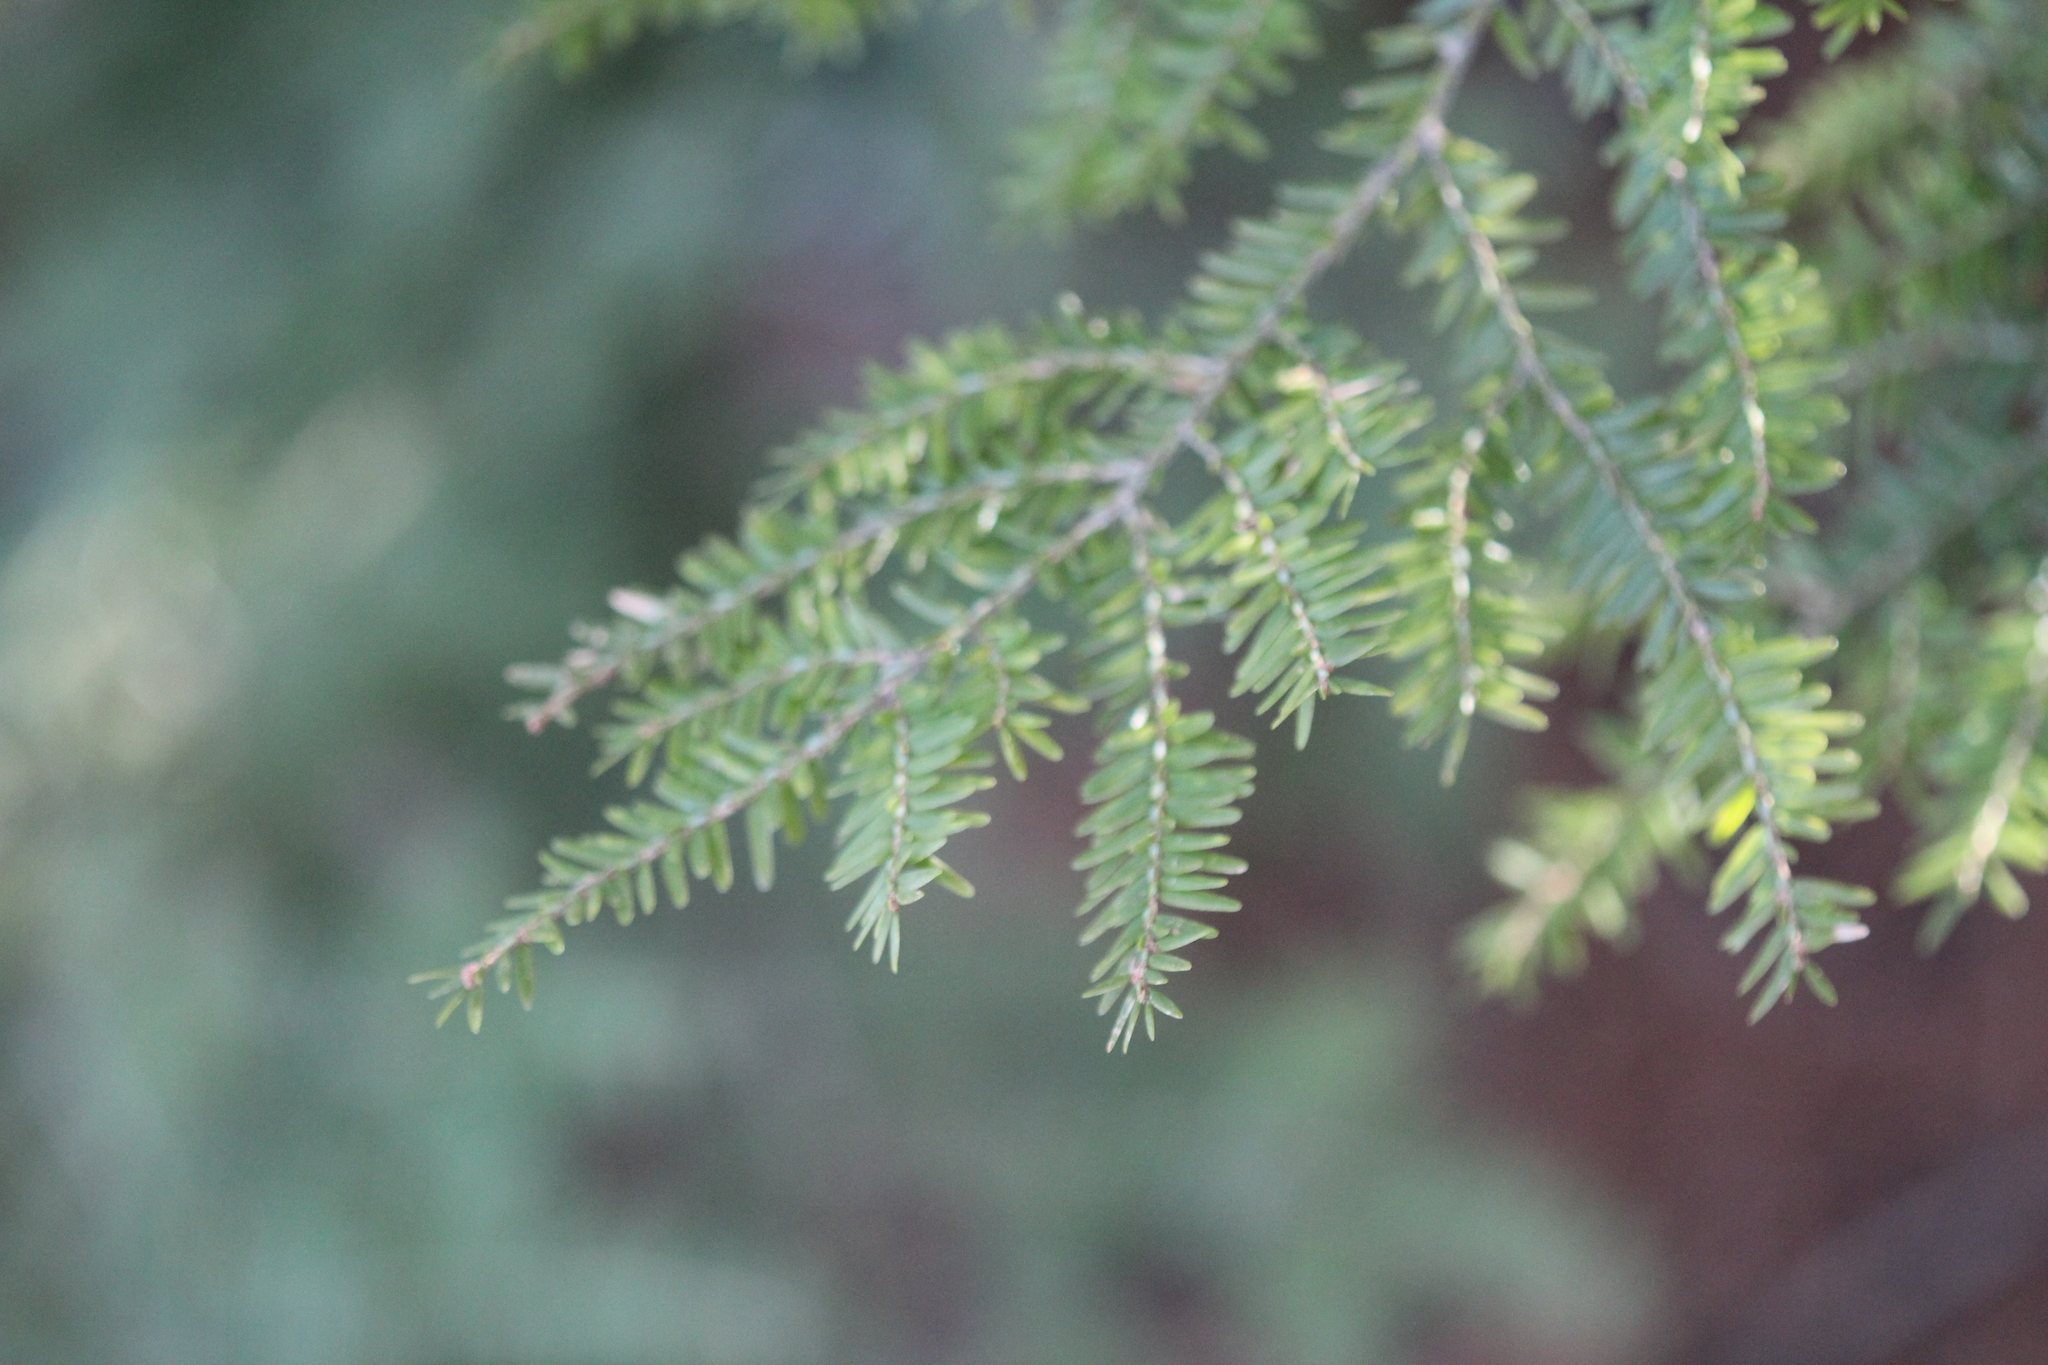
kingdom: Plantae
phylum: Tracheophyta
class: Pinopsida
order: Pinales
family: Pinaceae
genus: Tsuga
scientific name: Tsuga canadensis
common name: Eastern hemlock
